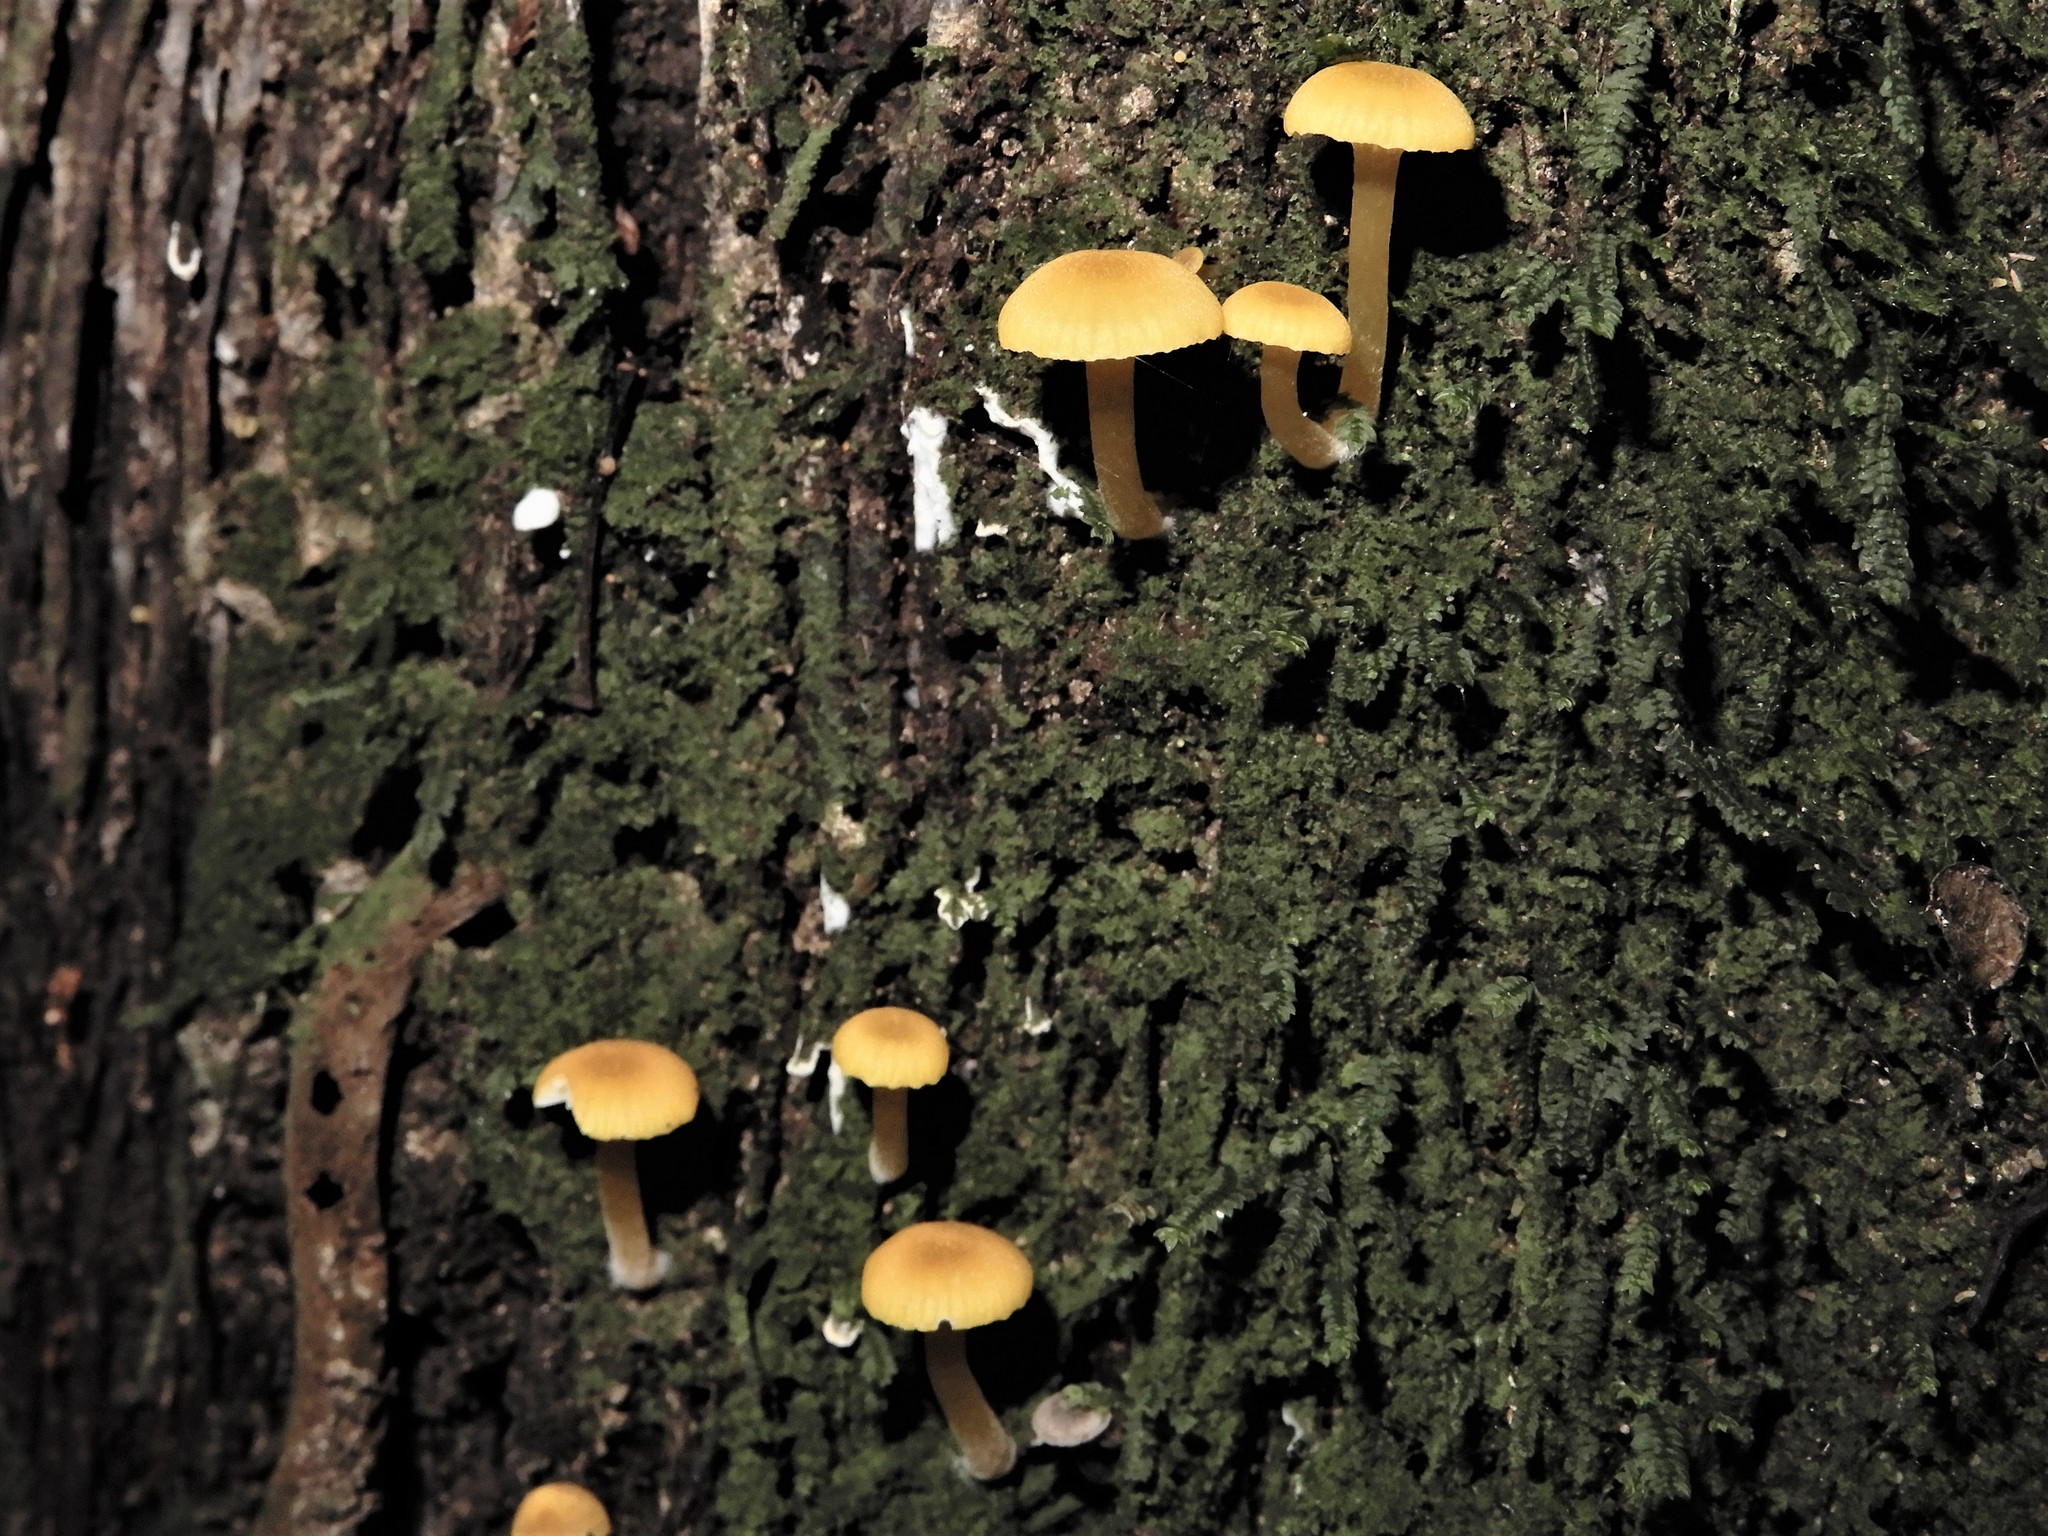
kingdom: Fungi
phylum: Basidiomycota
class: Agaricomycetes
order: Agaricales
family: Hygrophoraceae
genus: Hygrocybe
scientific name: Hygrocybe
